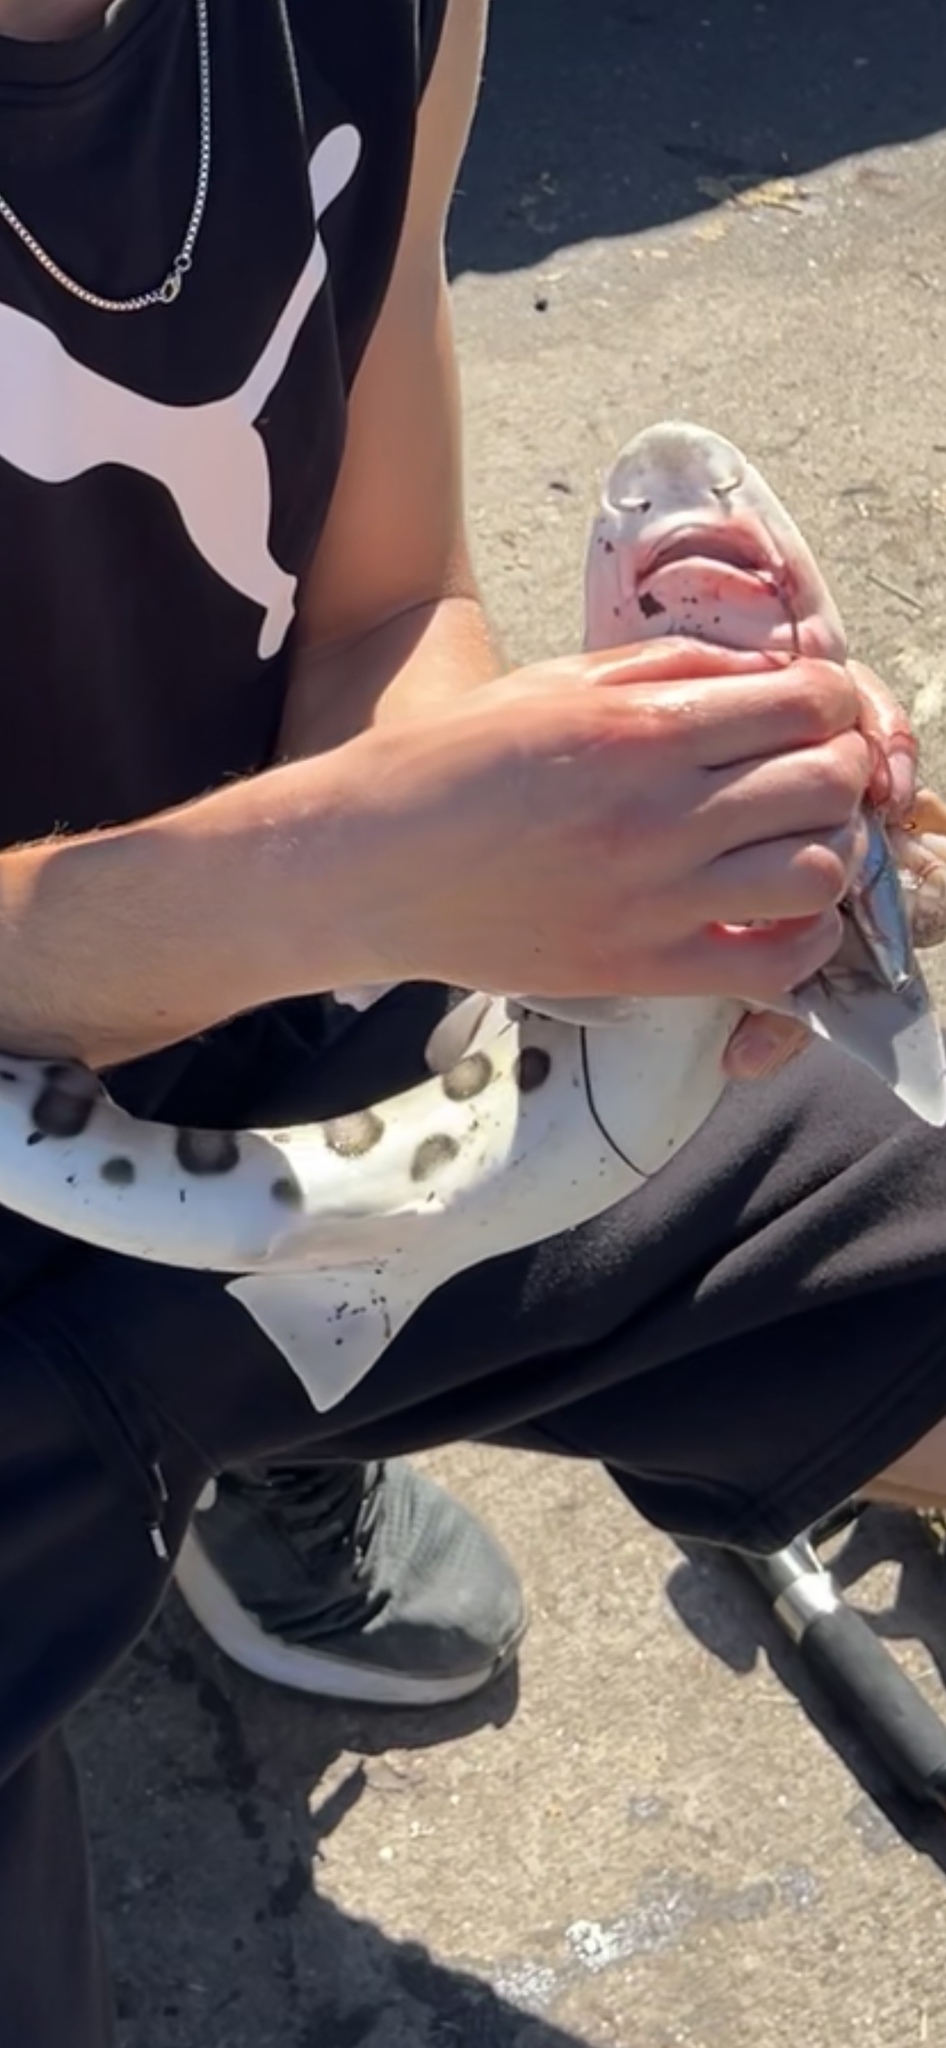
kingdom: Animalia
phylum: Chordata
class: Elasmobranchii
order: Carcharhiniformes
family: Triakidae
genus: Triakis
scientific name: Triakis semifasciata
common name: Leopard shark
